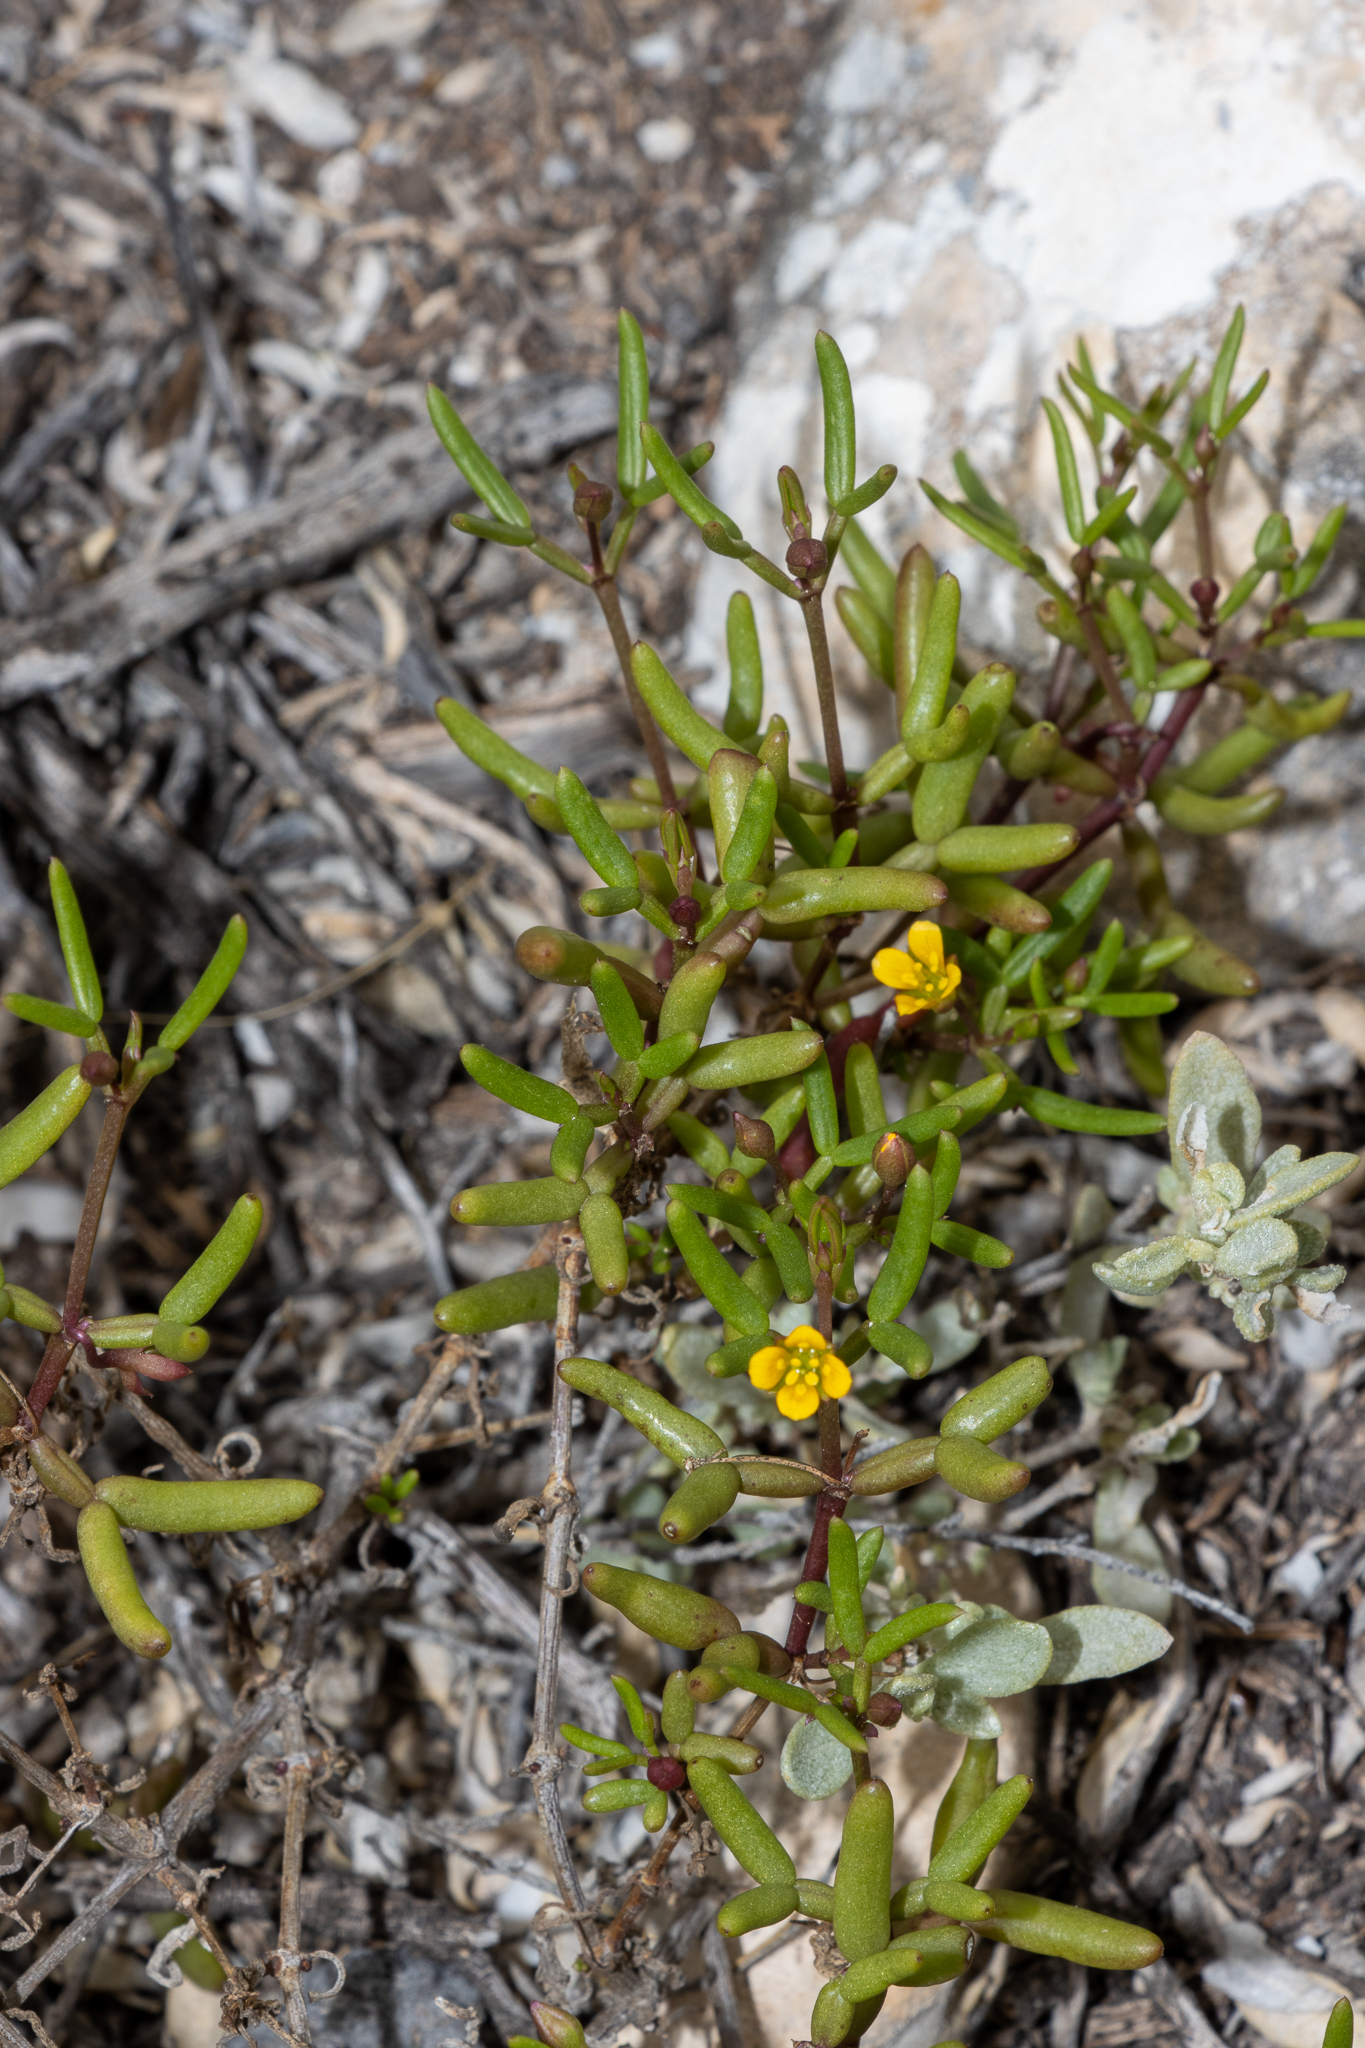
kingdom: Plantae
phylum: Tracheophyta
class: Magnoliopsida
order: Zygophyllales
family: Zygophyllaceae
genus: Roepera
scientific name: Roepera angustifolia
